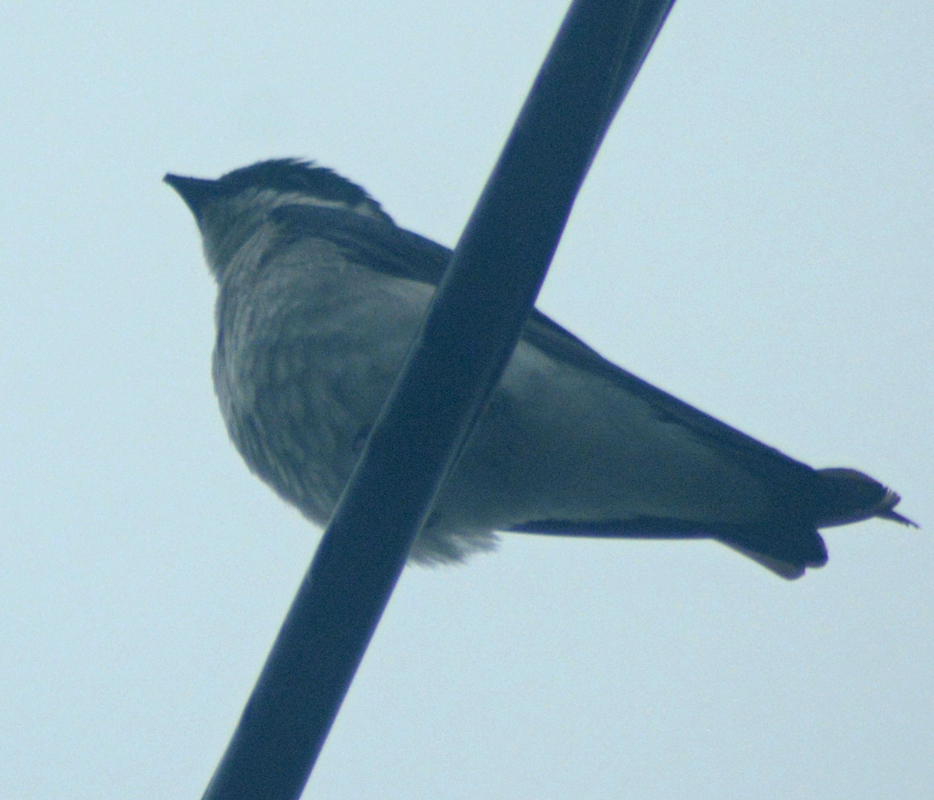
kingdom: Animalia
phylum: Chordata
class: Aves
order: Passeriformes
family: Hirundinidae
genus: Tachycineta
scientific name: Tachycineta albilinea
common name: Mangrove swallow
